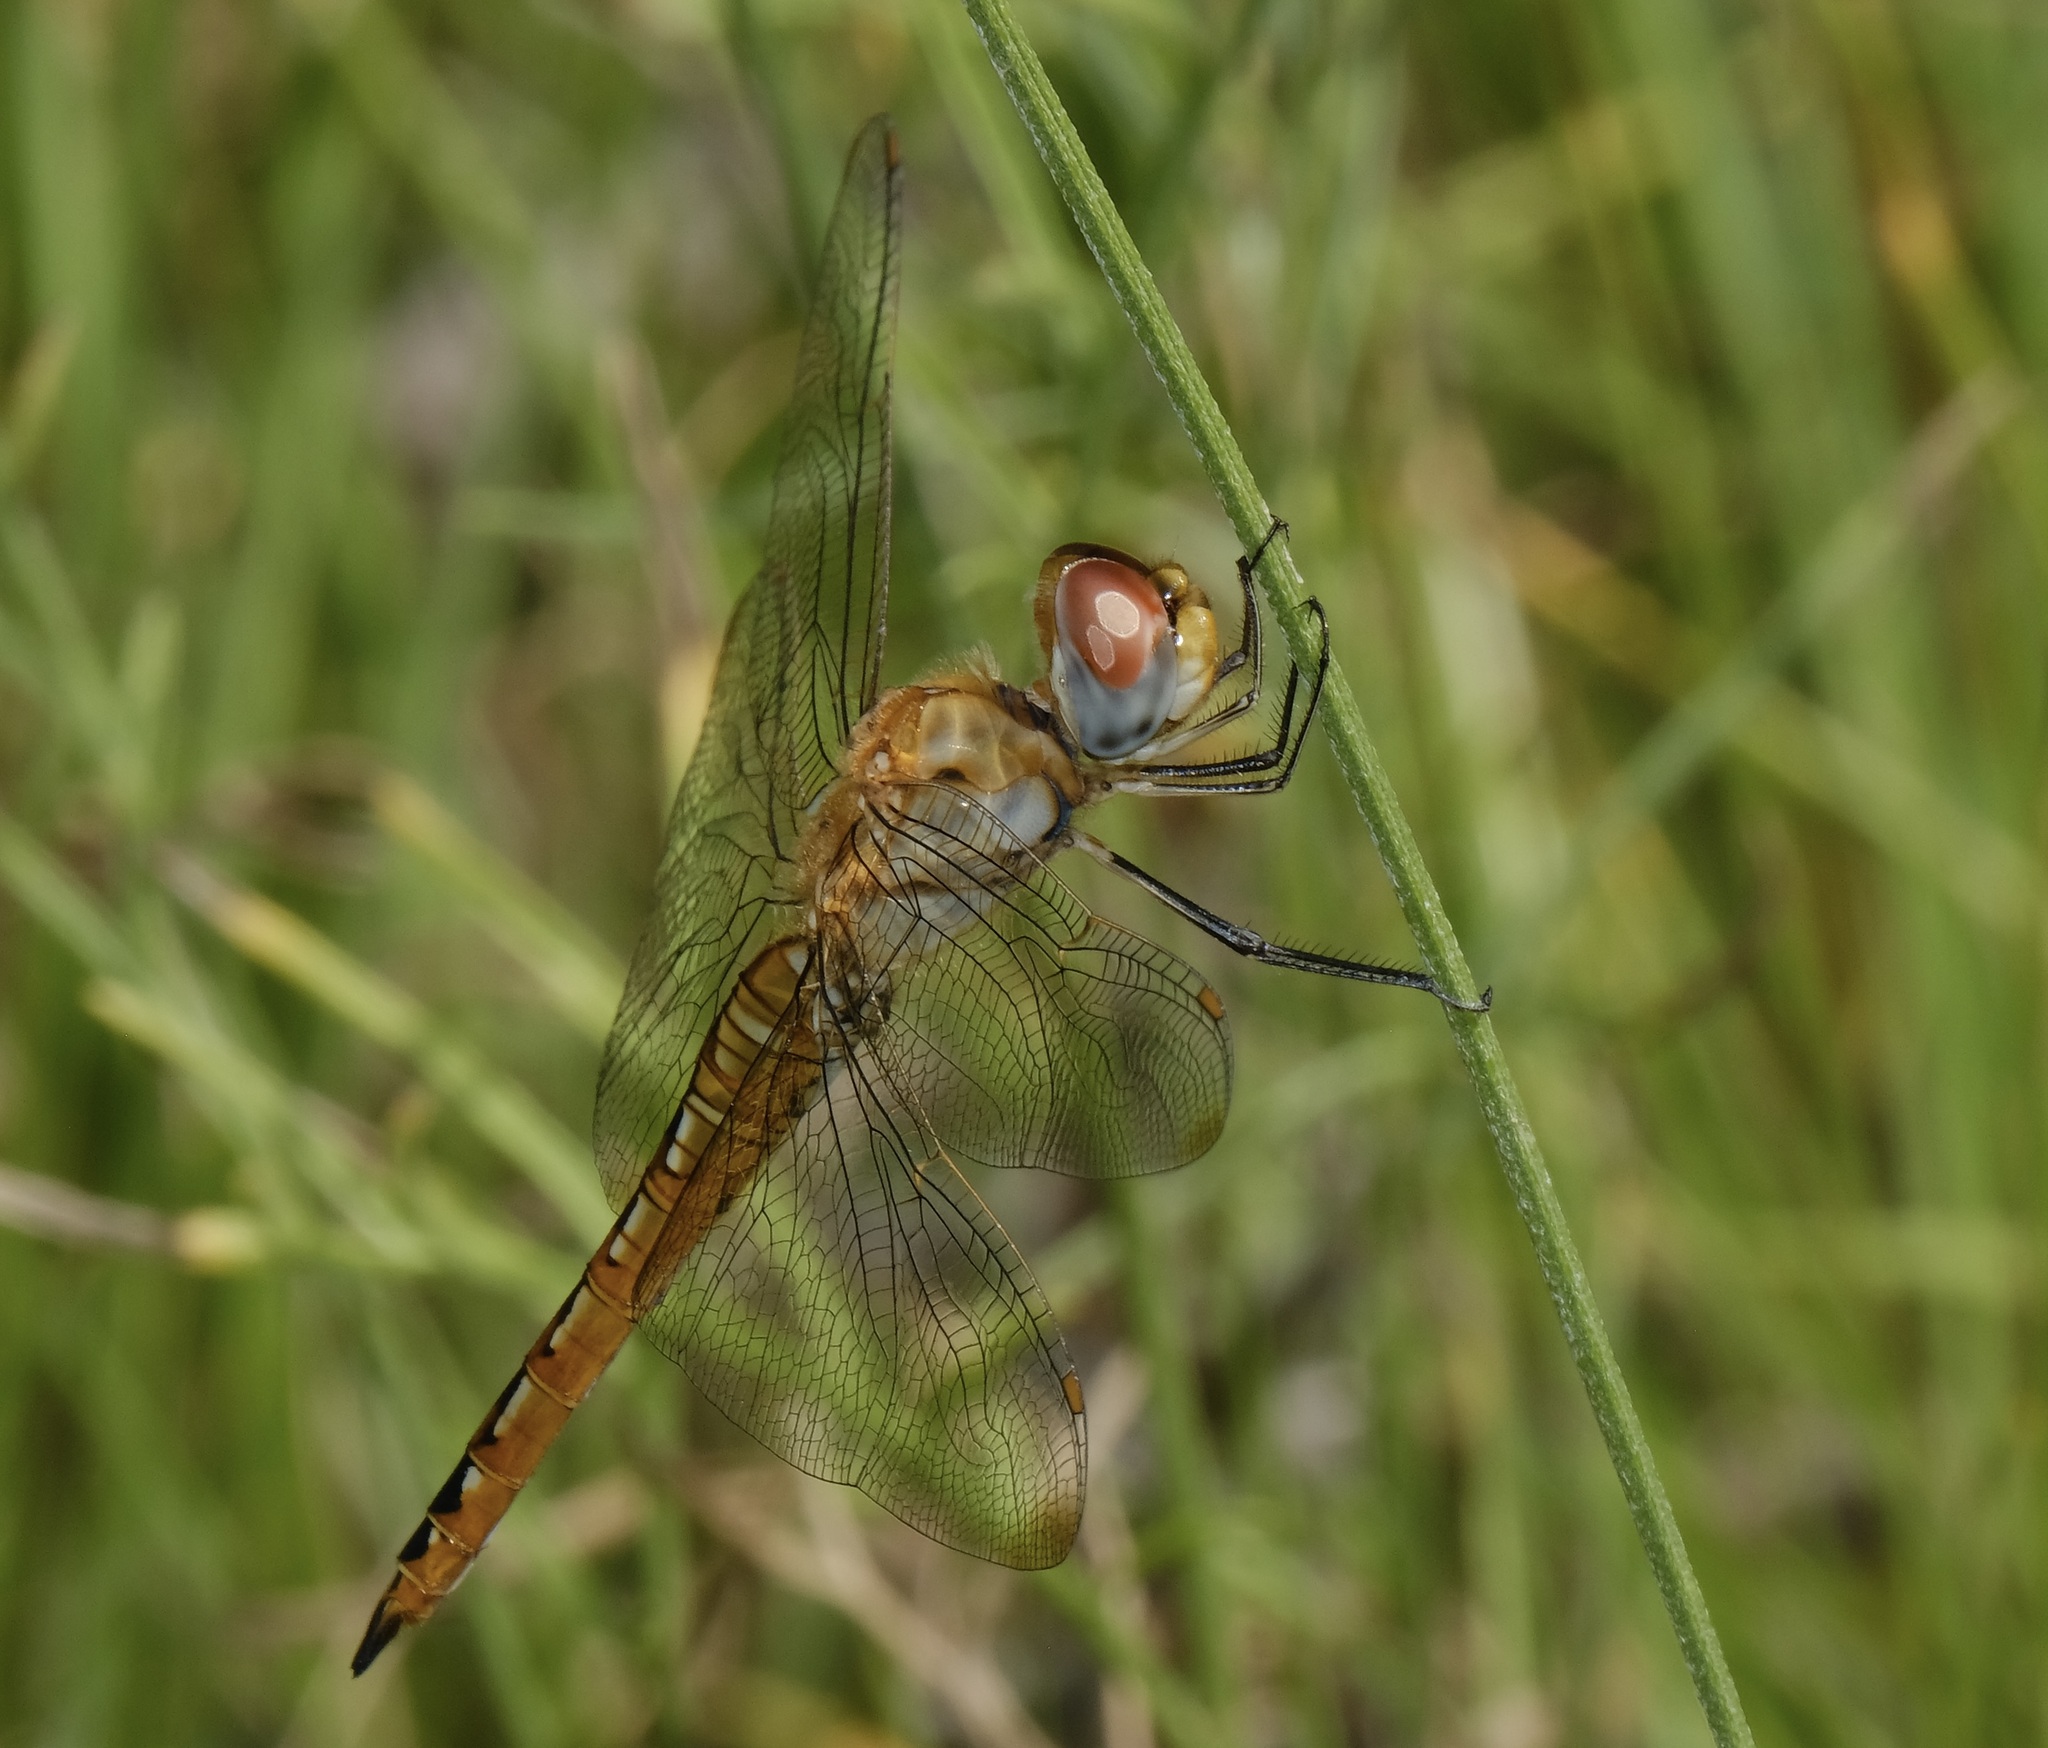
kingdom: Animalia
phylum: Arthropoda
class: Insecta
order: Odonata
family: Libellulidae
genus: Pantala
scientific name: Pantala flavescens
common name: Wandering glider
